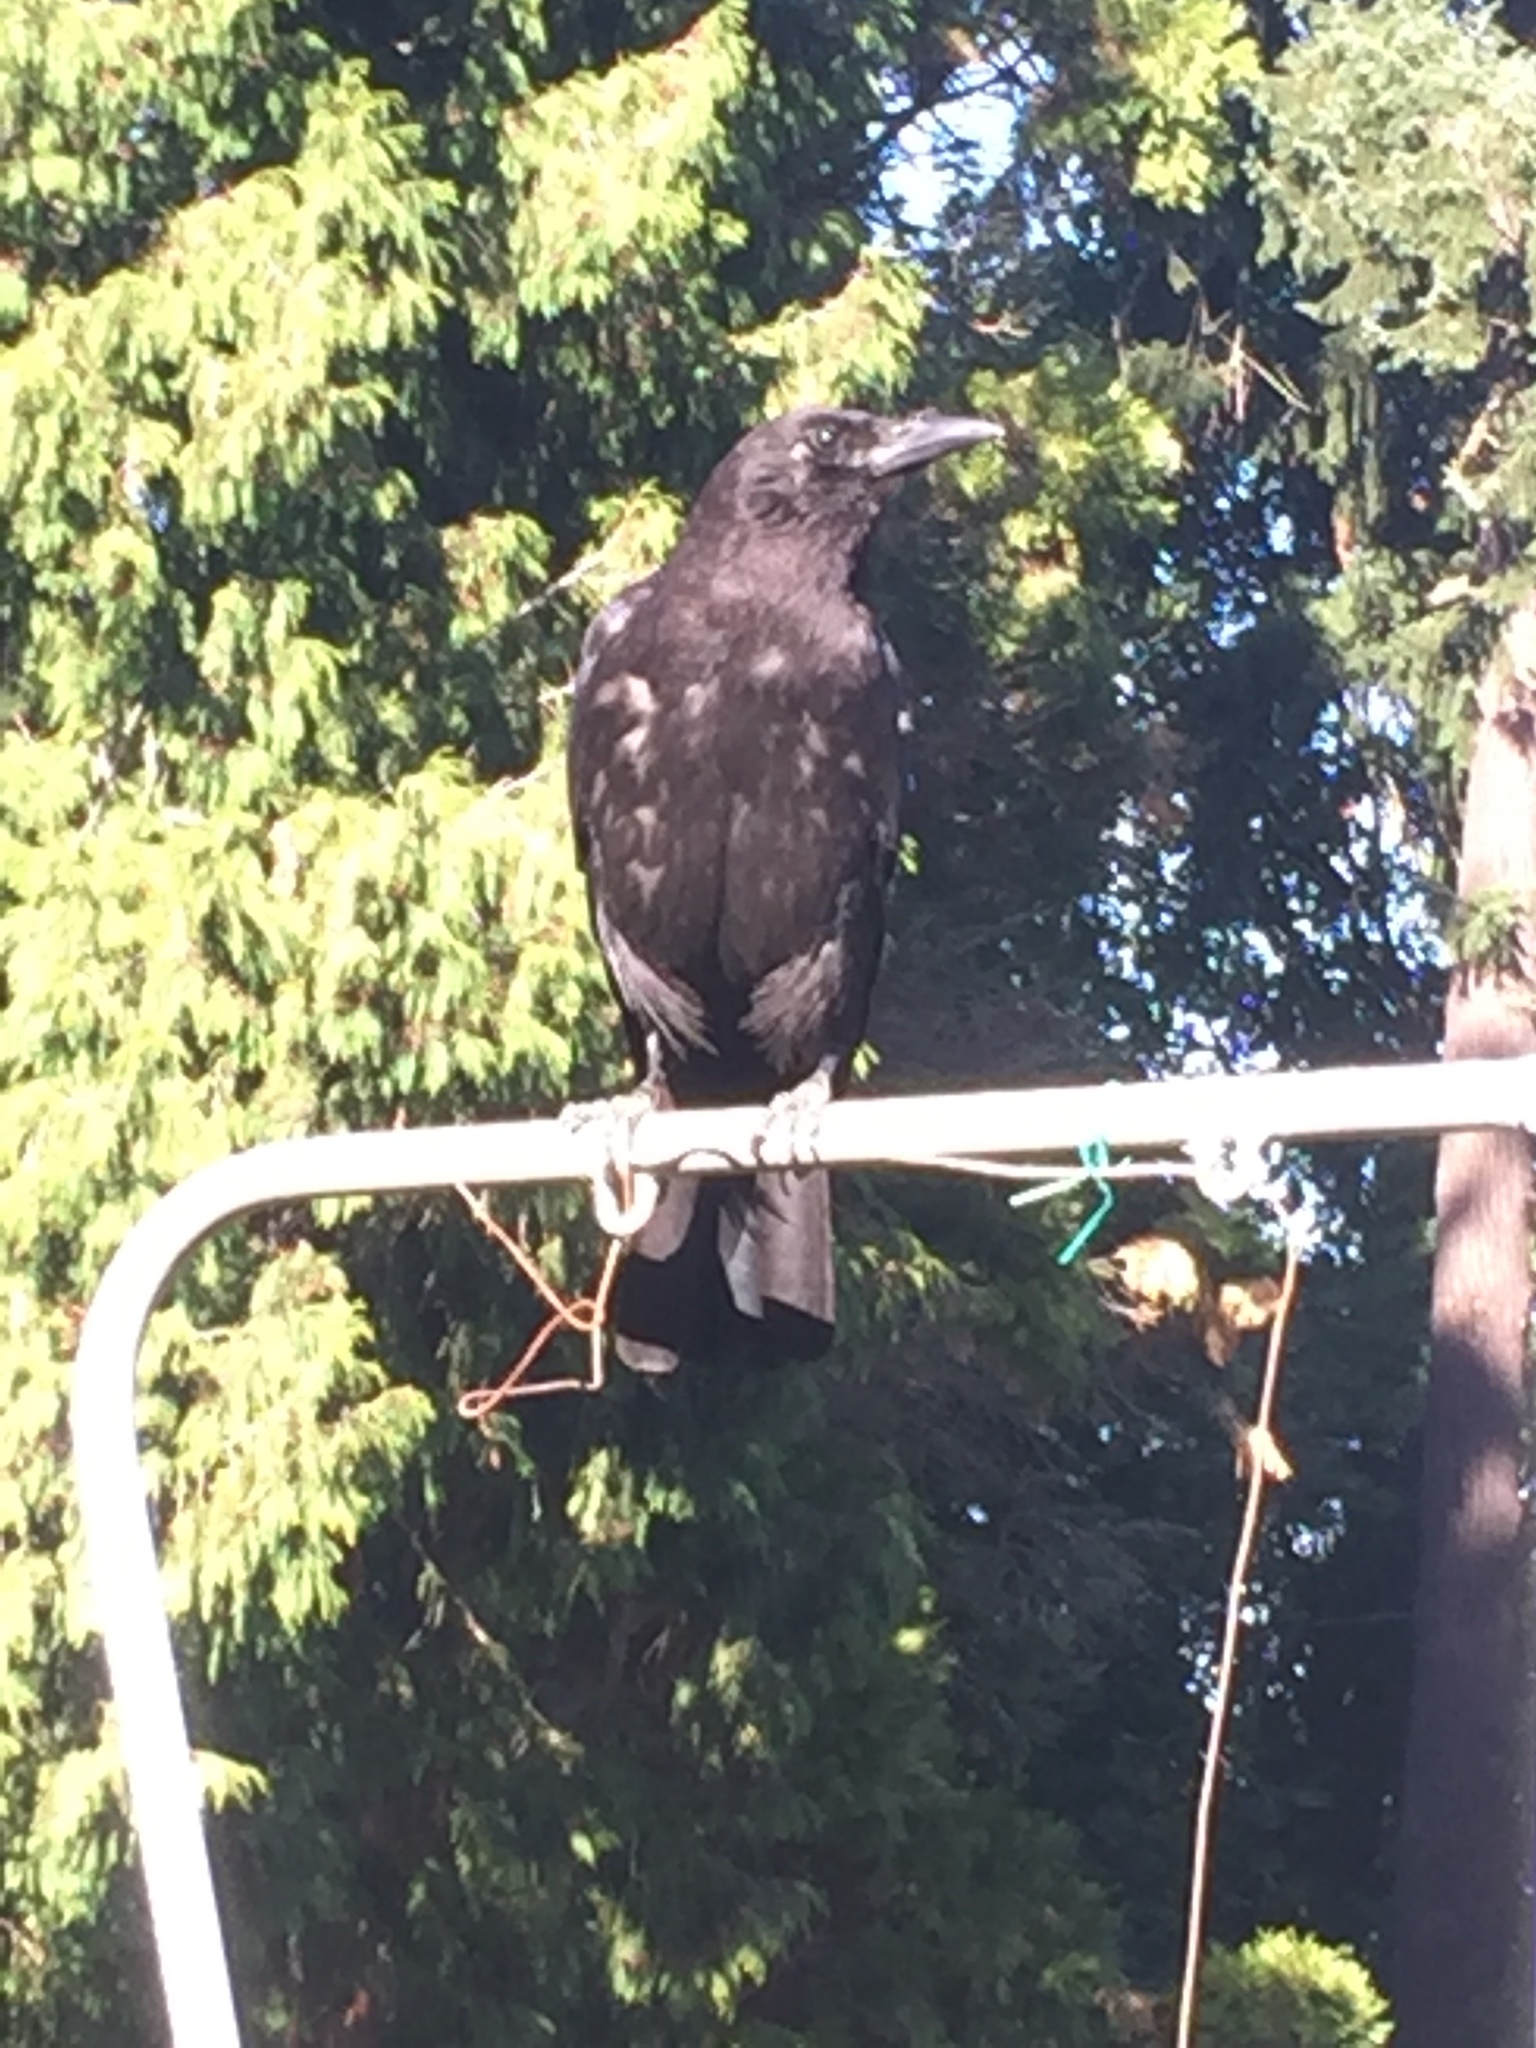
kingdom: Animalia
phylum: Chordata
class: Aves
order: Passeriformes
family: Corvidae
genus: Corvus
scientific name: Corvus brachyrhynchos
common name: American crow
